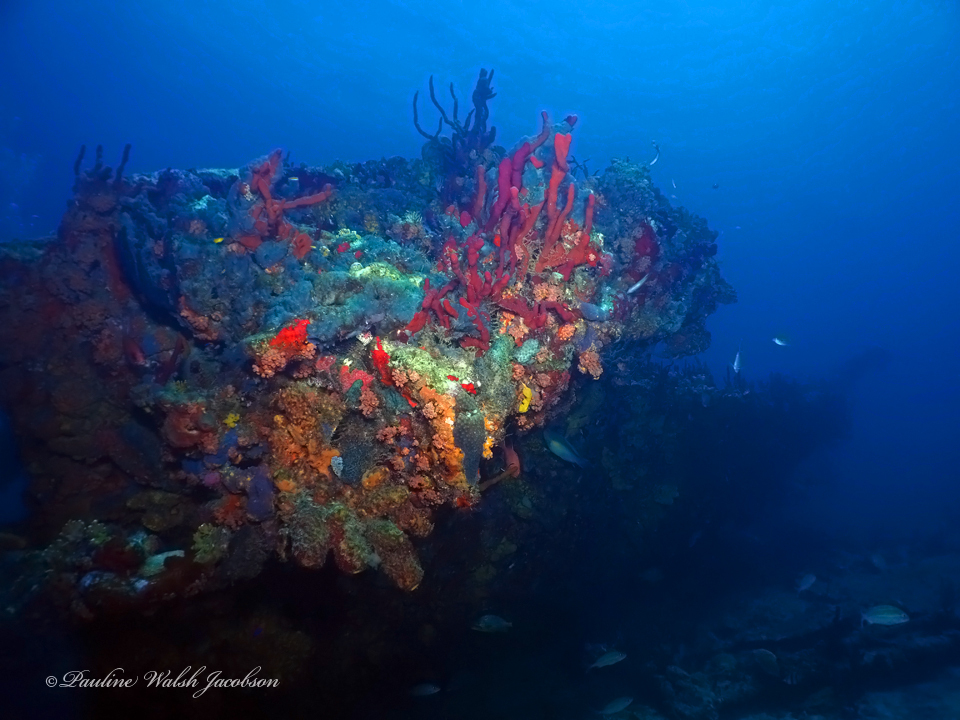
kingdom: Animalia
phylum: Porifera
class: Demospongiae
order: Verongiida
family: Aplysinidae
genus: Aplysina
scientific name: Aplysina lacunosa
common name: Convoluted barrel sponge
